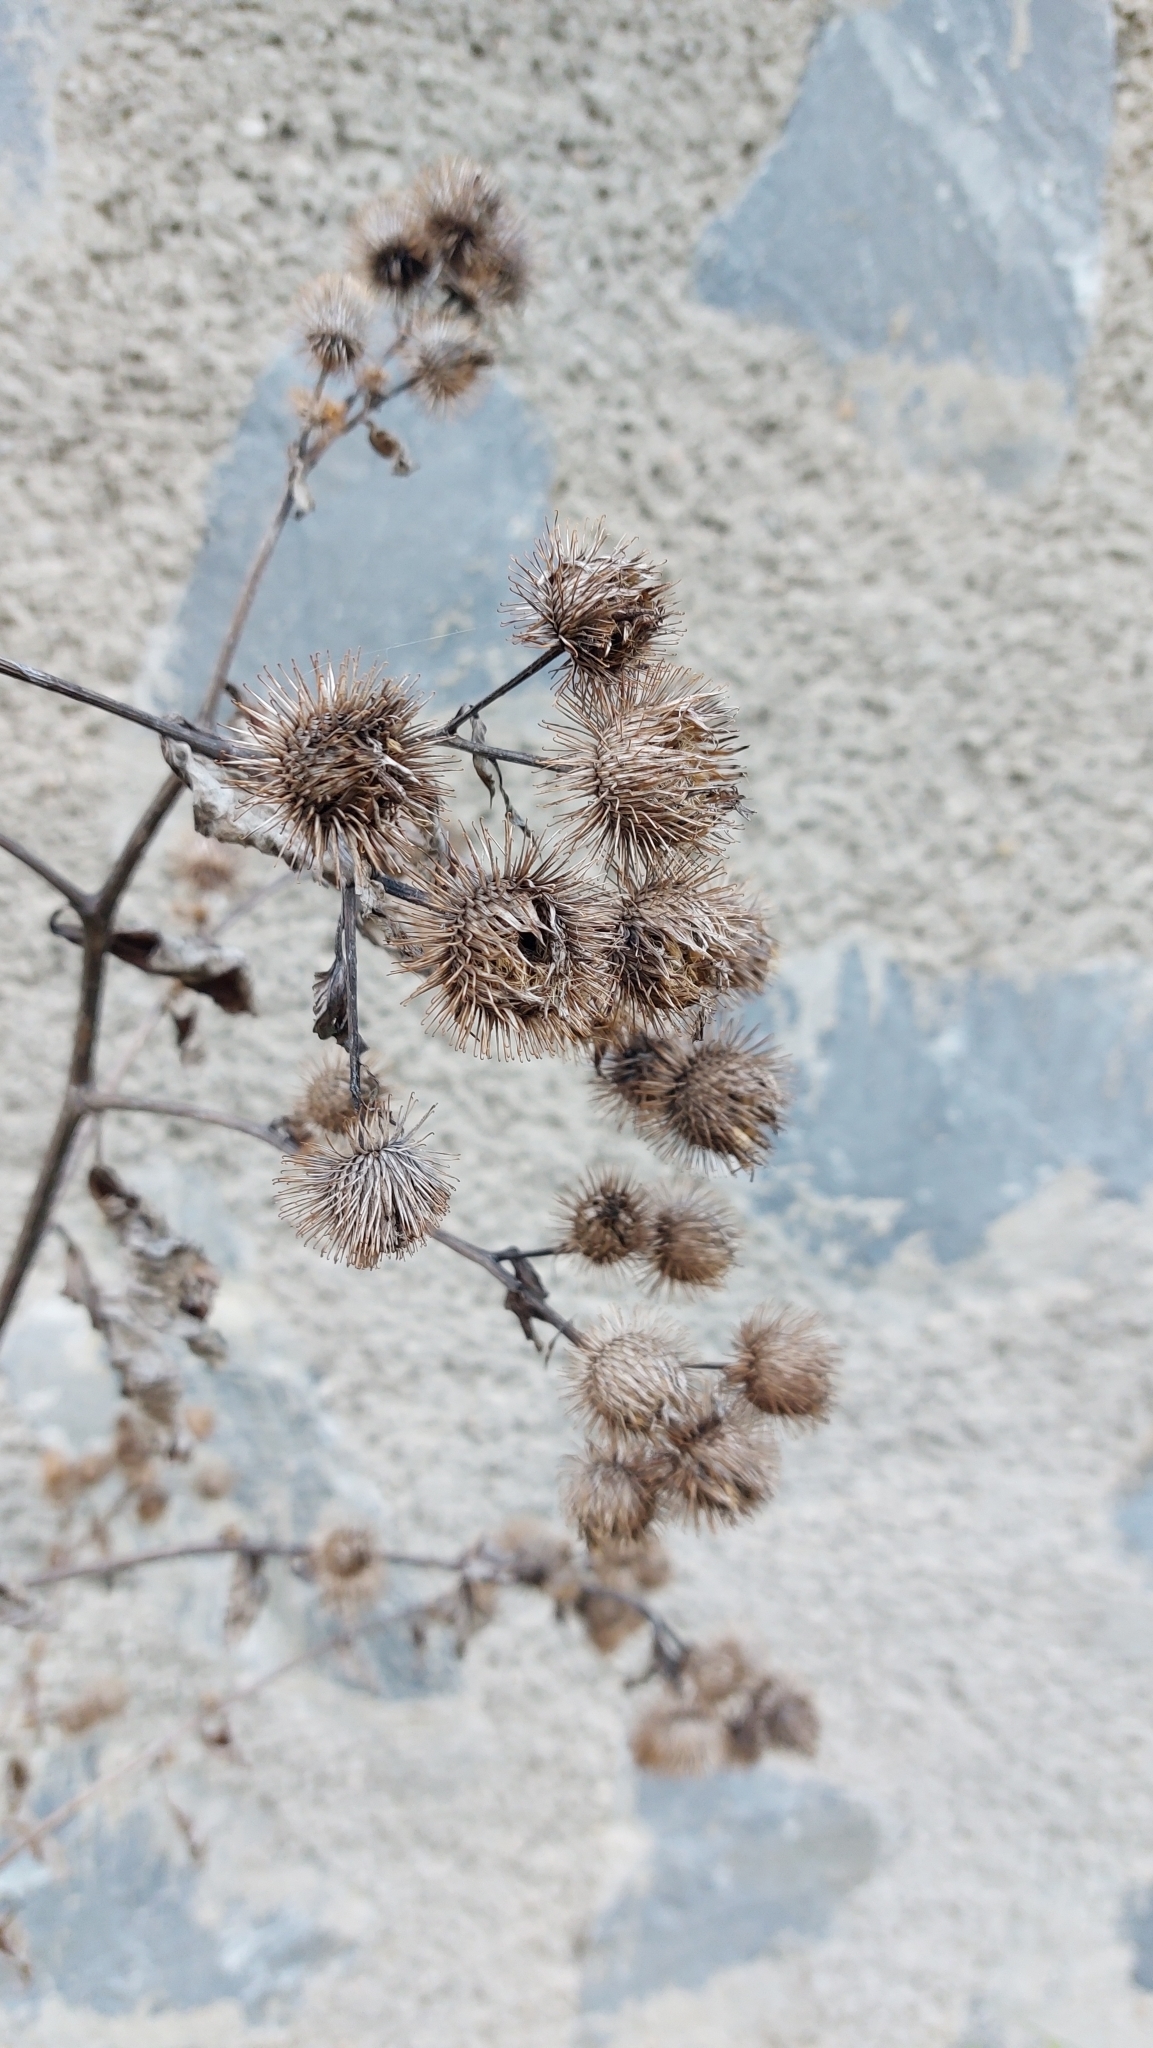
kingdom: Plantae
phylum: Tracheophyta
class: Magnoliopsida
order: Asterales
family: Asteraceae
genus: Arctium
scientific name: Arctium lappa
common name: Greater burdock
